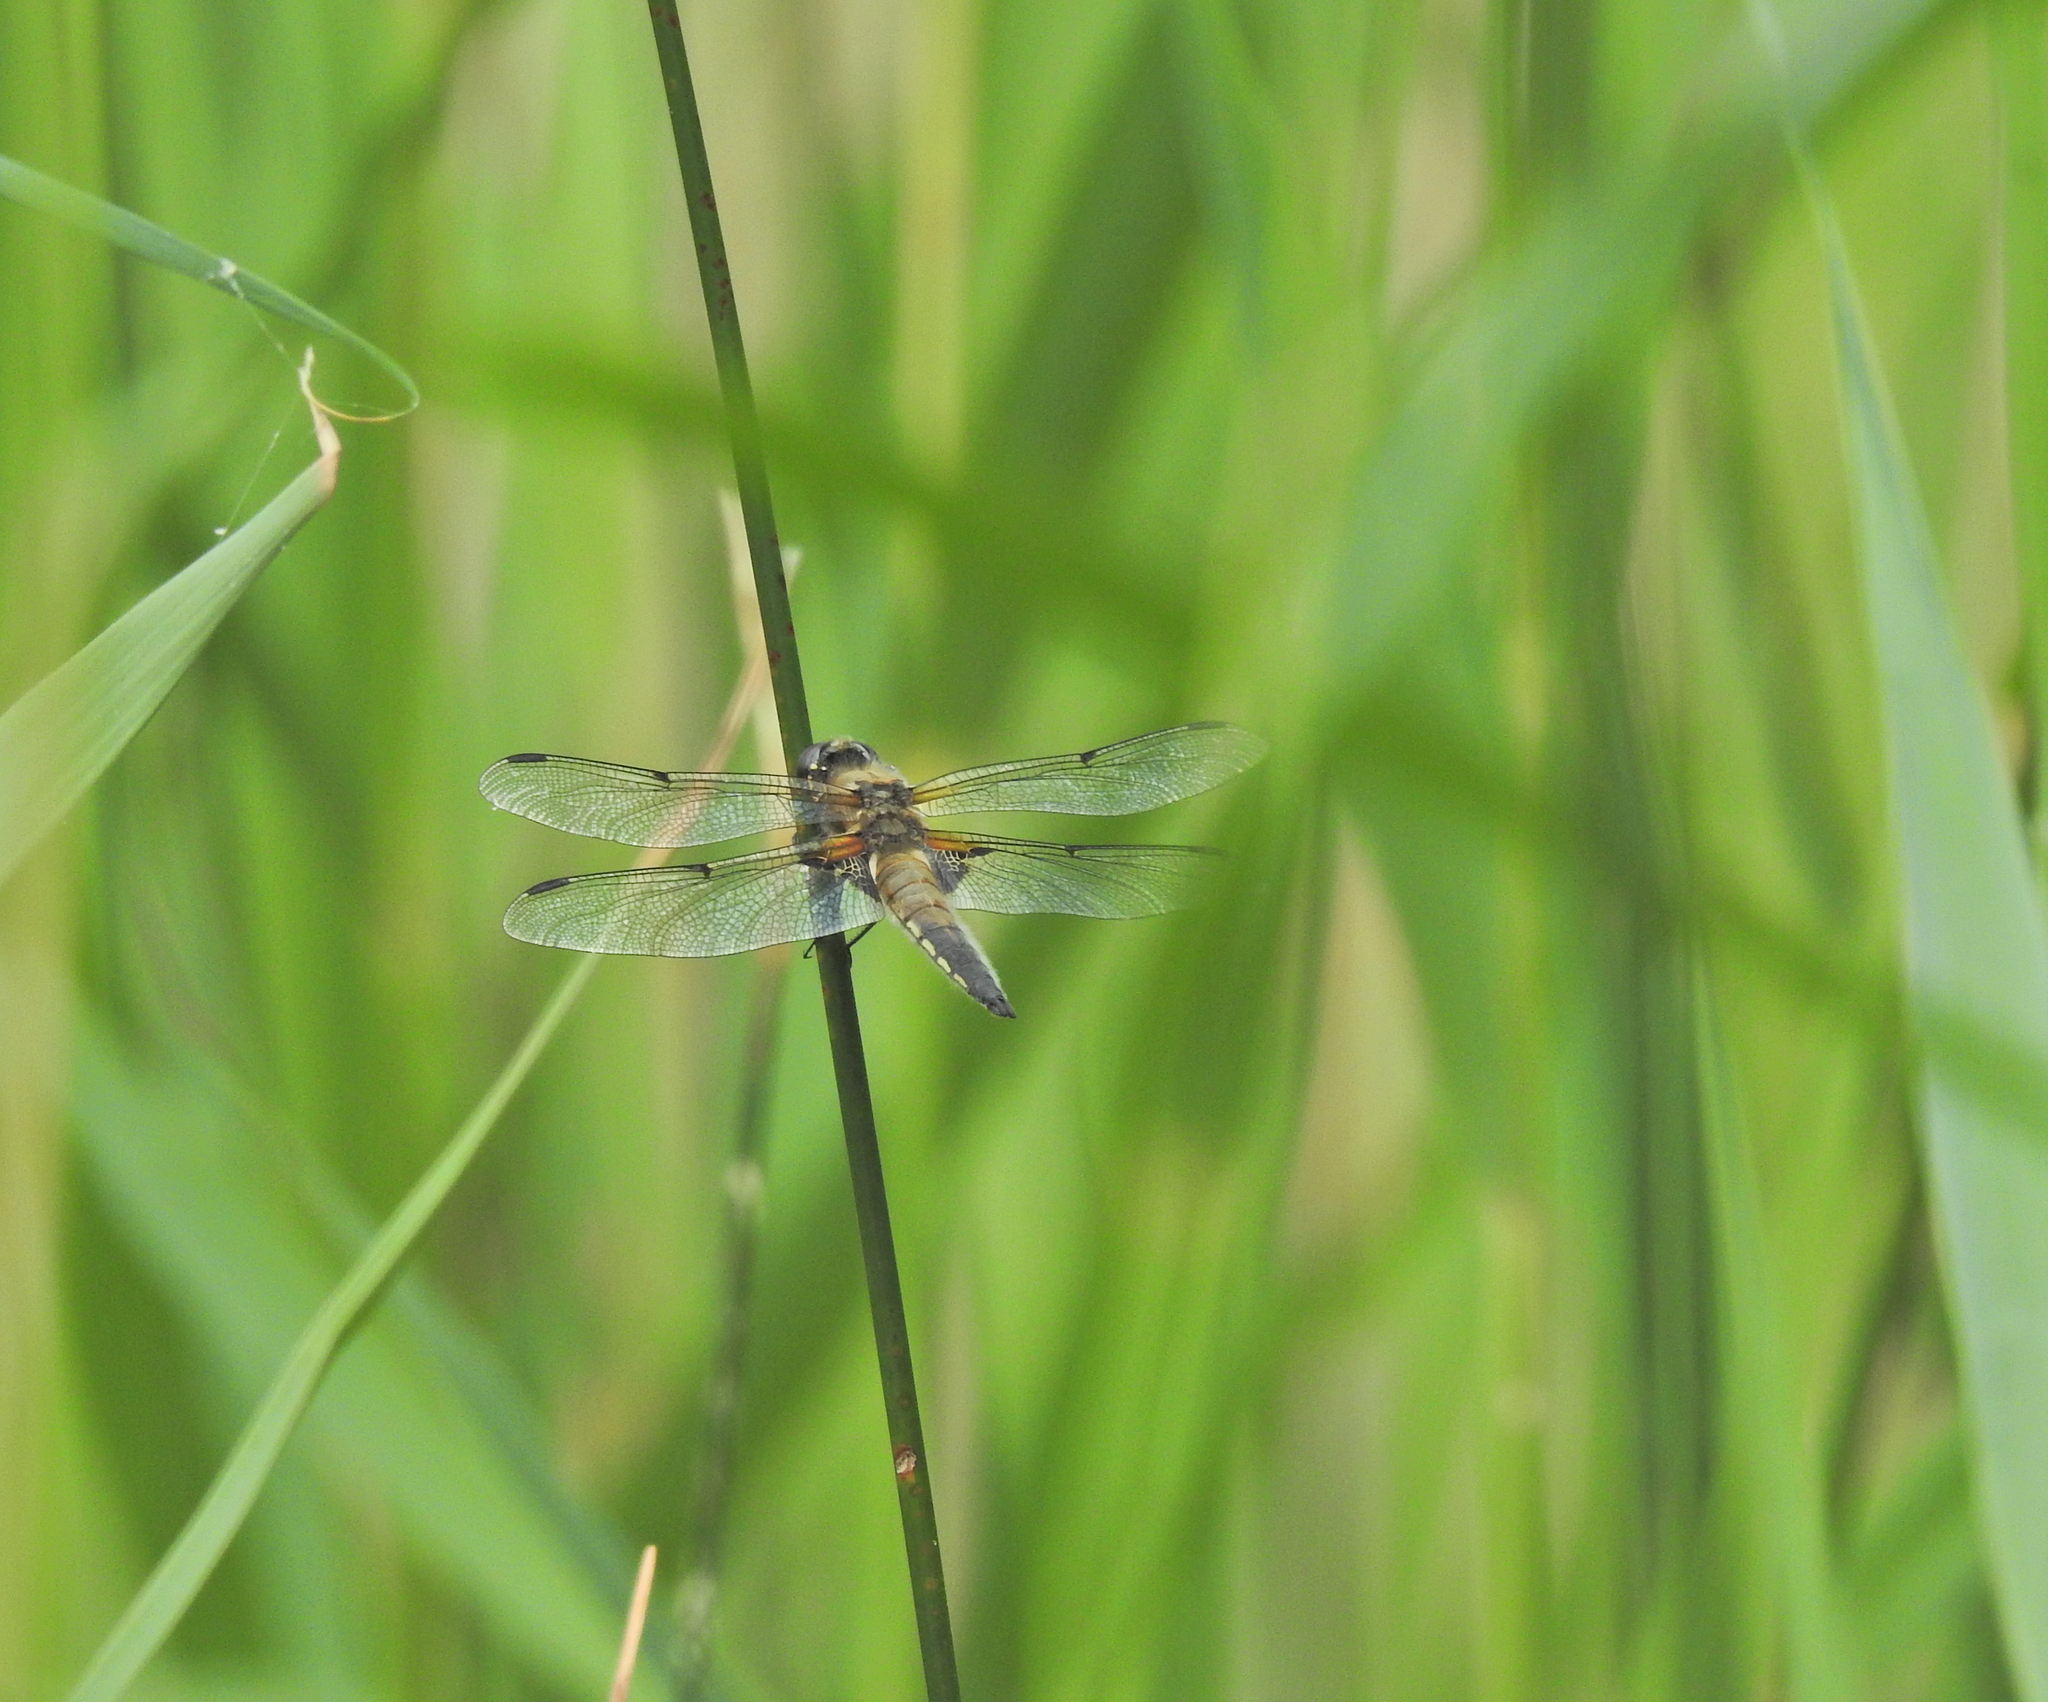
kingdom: Animalia
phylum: Arthropoda
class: Insecta
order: Odonata
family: Libellulidae
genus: Libellula
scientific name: Libellula quadrimaculata
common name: Four-spotted chaser
